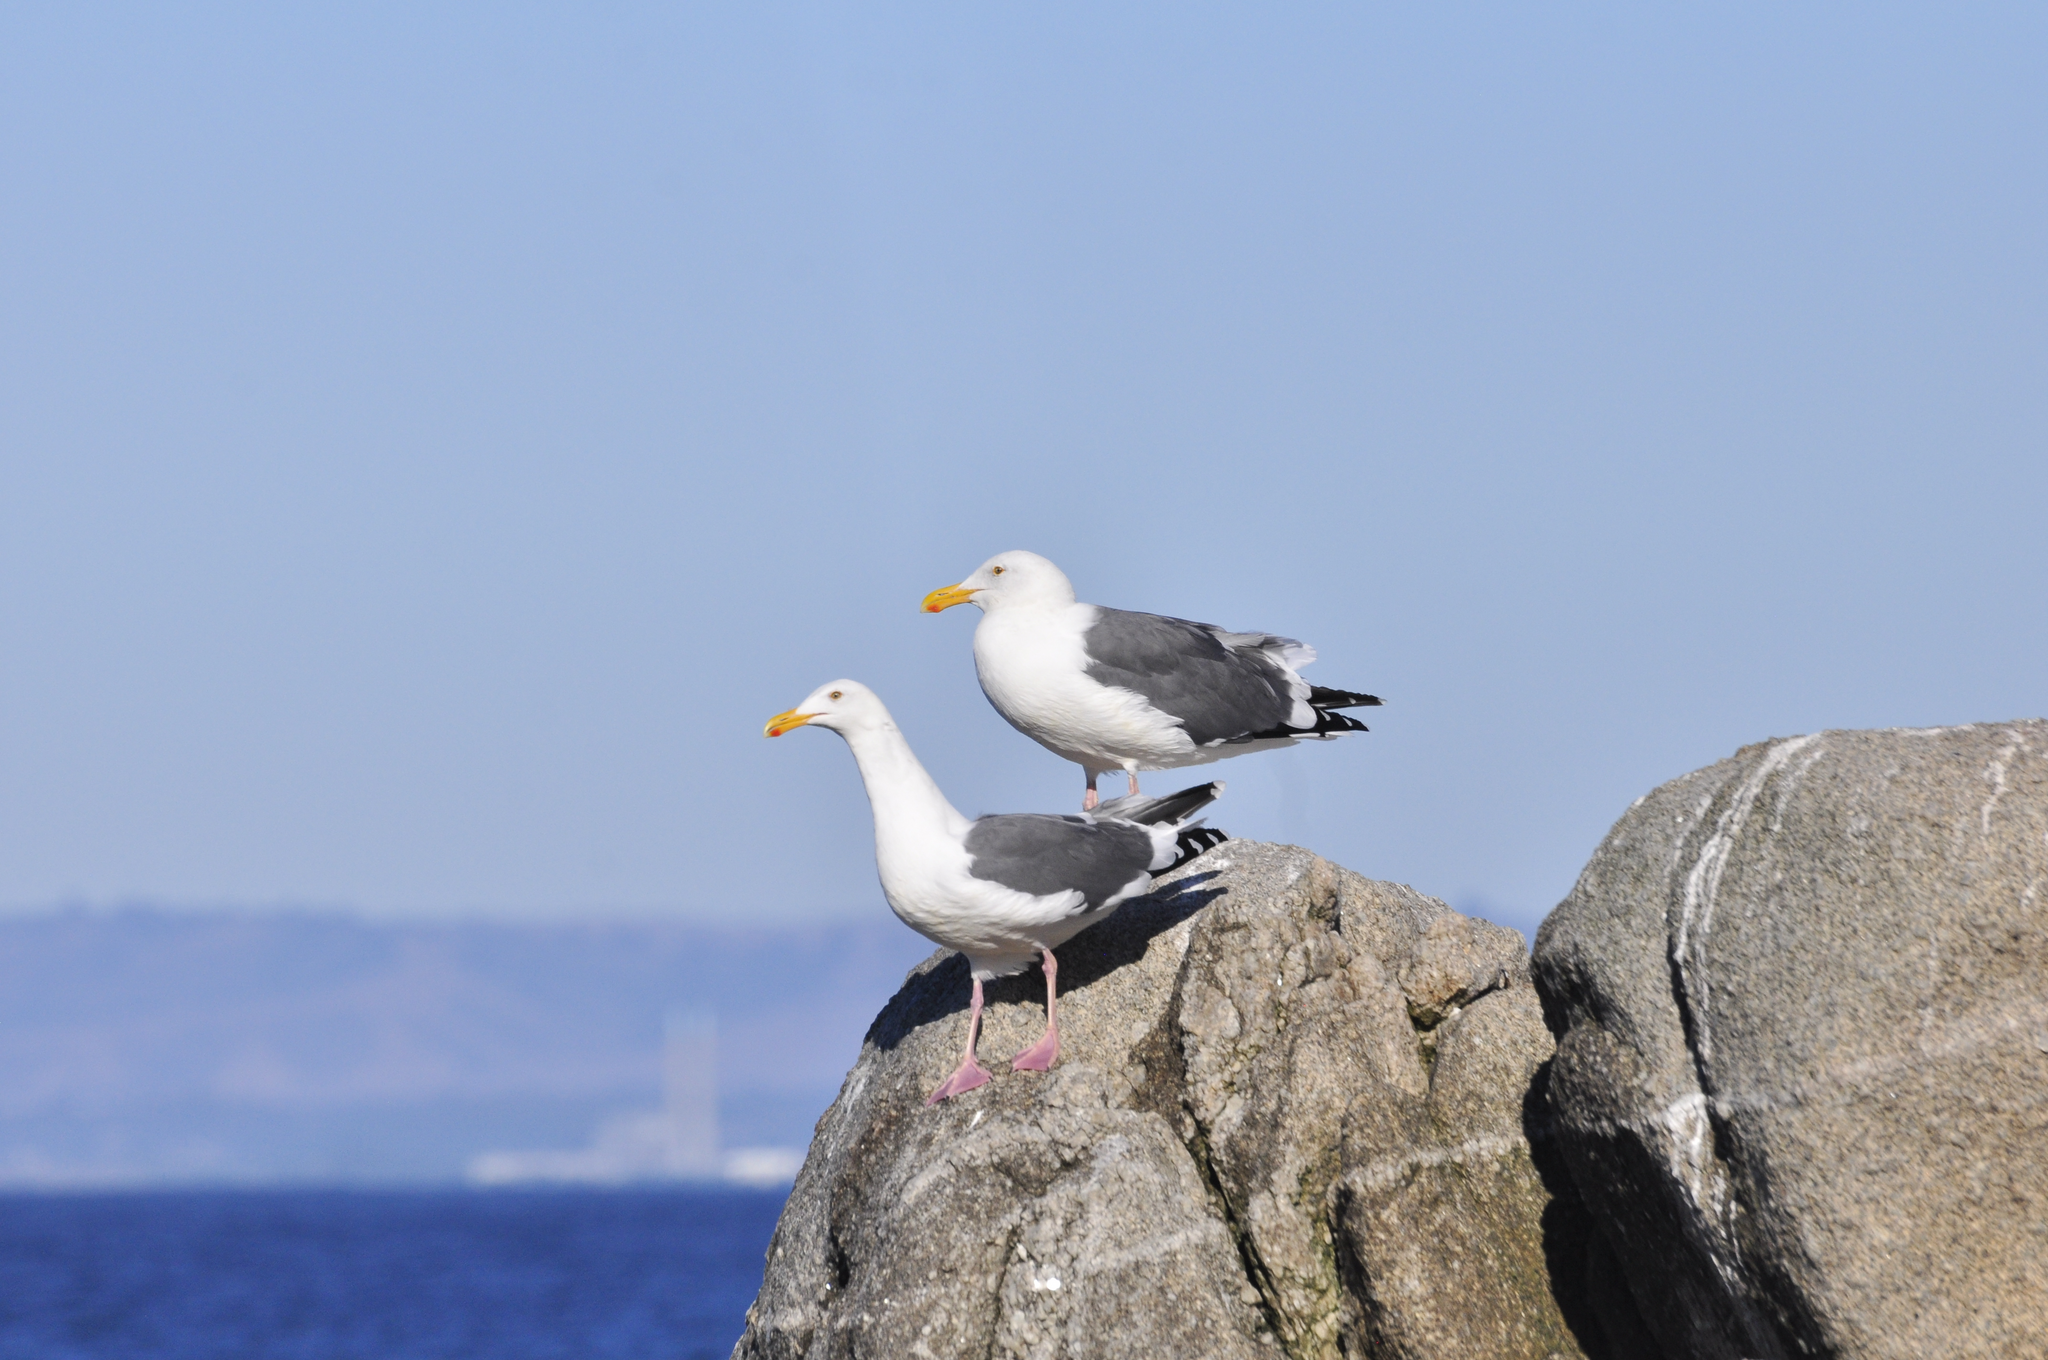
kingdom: Animalia
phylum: Chordata
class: Aves
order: Charadriiformes
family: Laridae
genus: Larus
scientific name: Larus occidentalis
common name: Western gull
